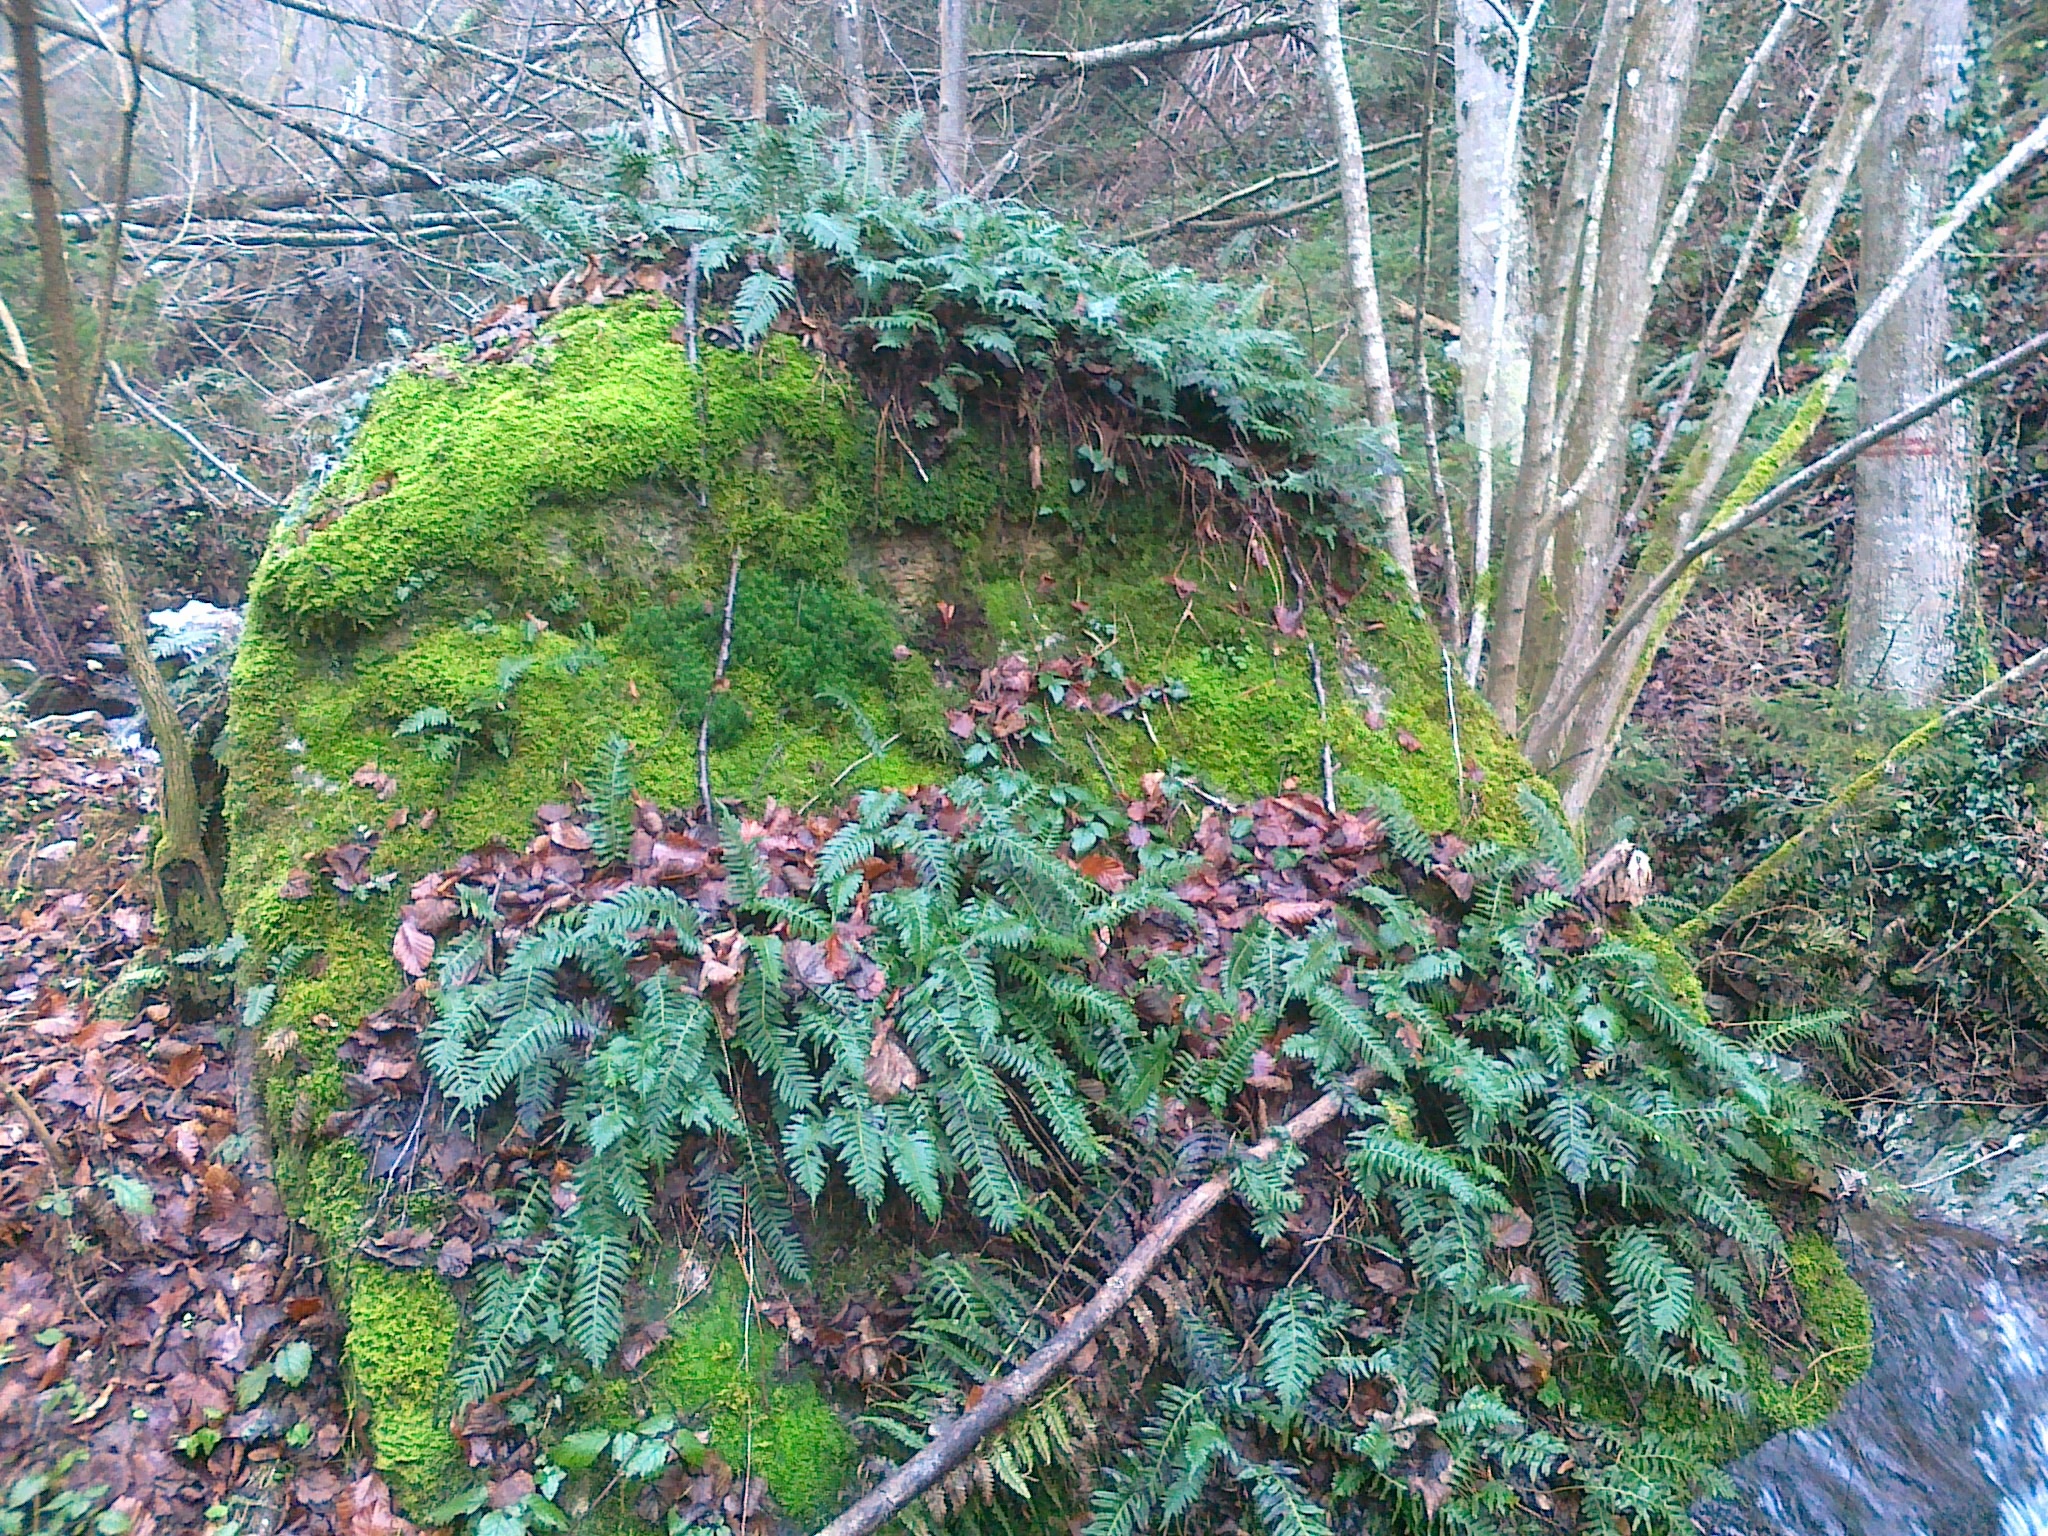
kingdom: Plantae
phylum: Tracheophyta
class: Polypodiopsida
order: Polypodiales
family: Polypodiaceae
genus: Polypodium
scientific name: Polypodium vulgare
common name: Common polypody
